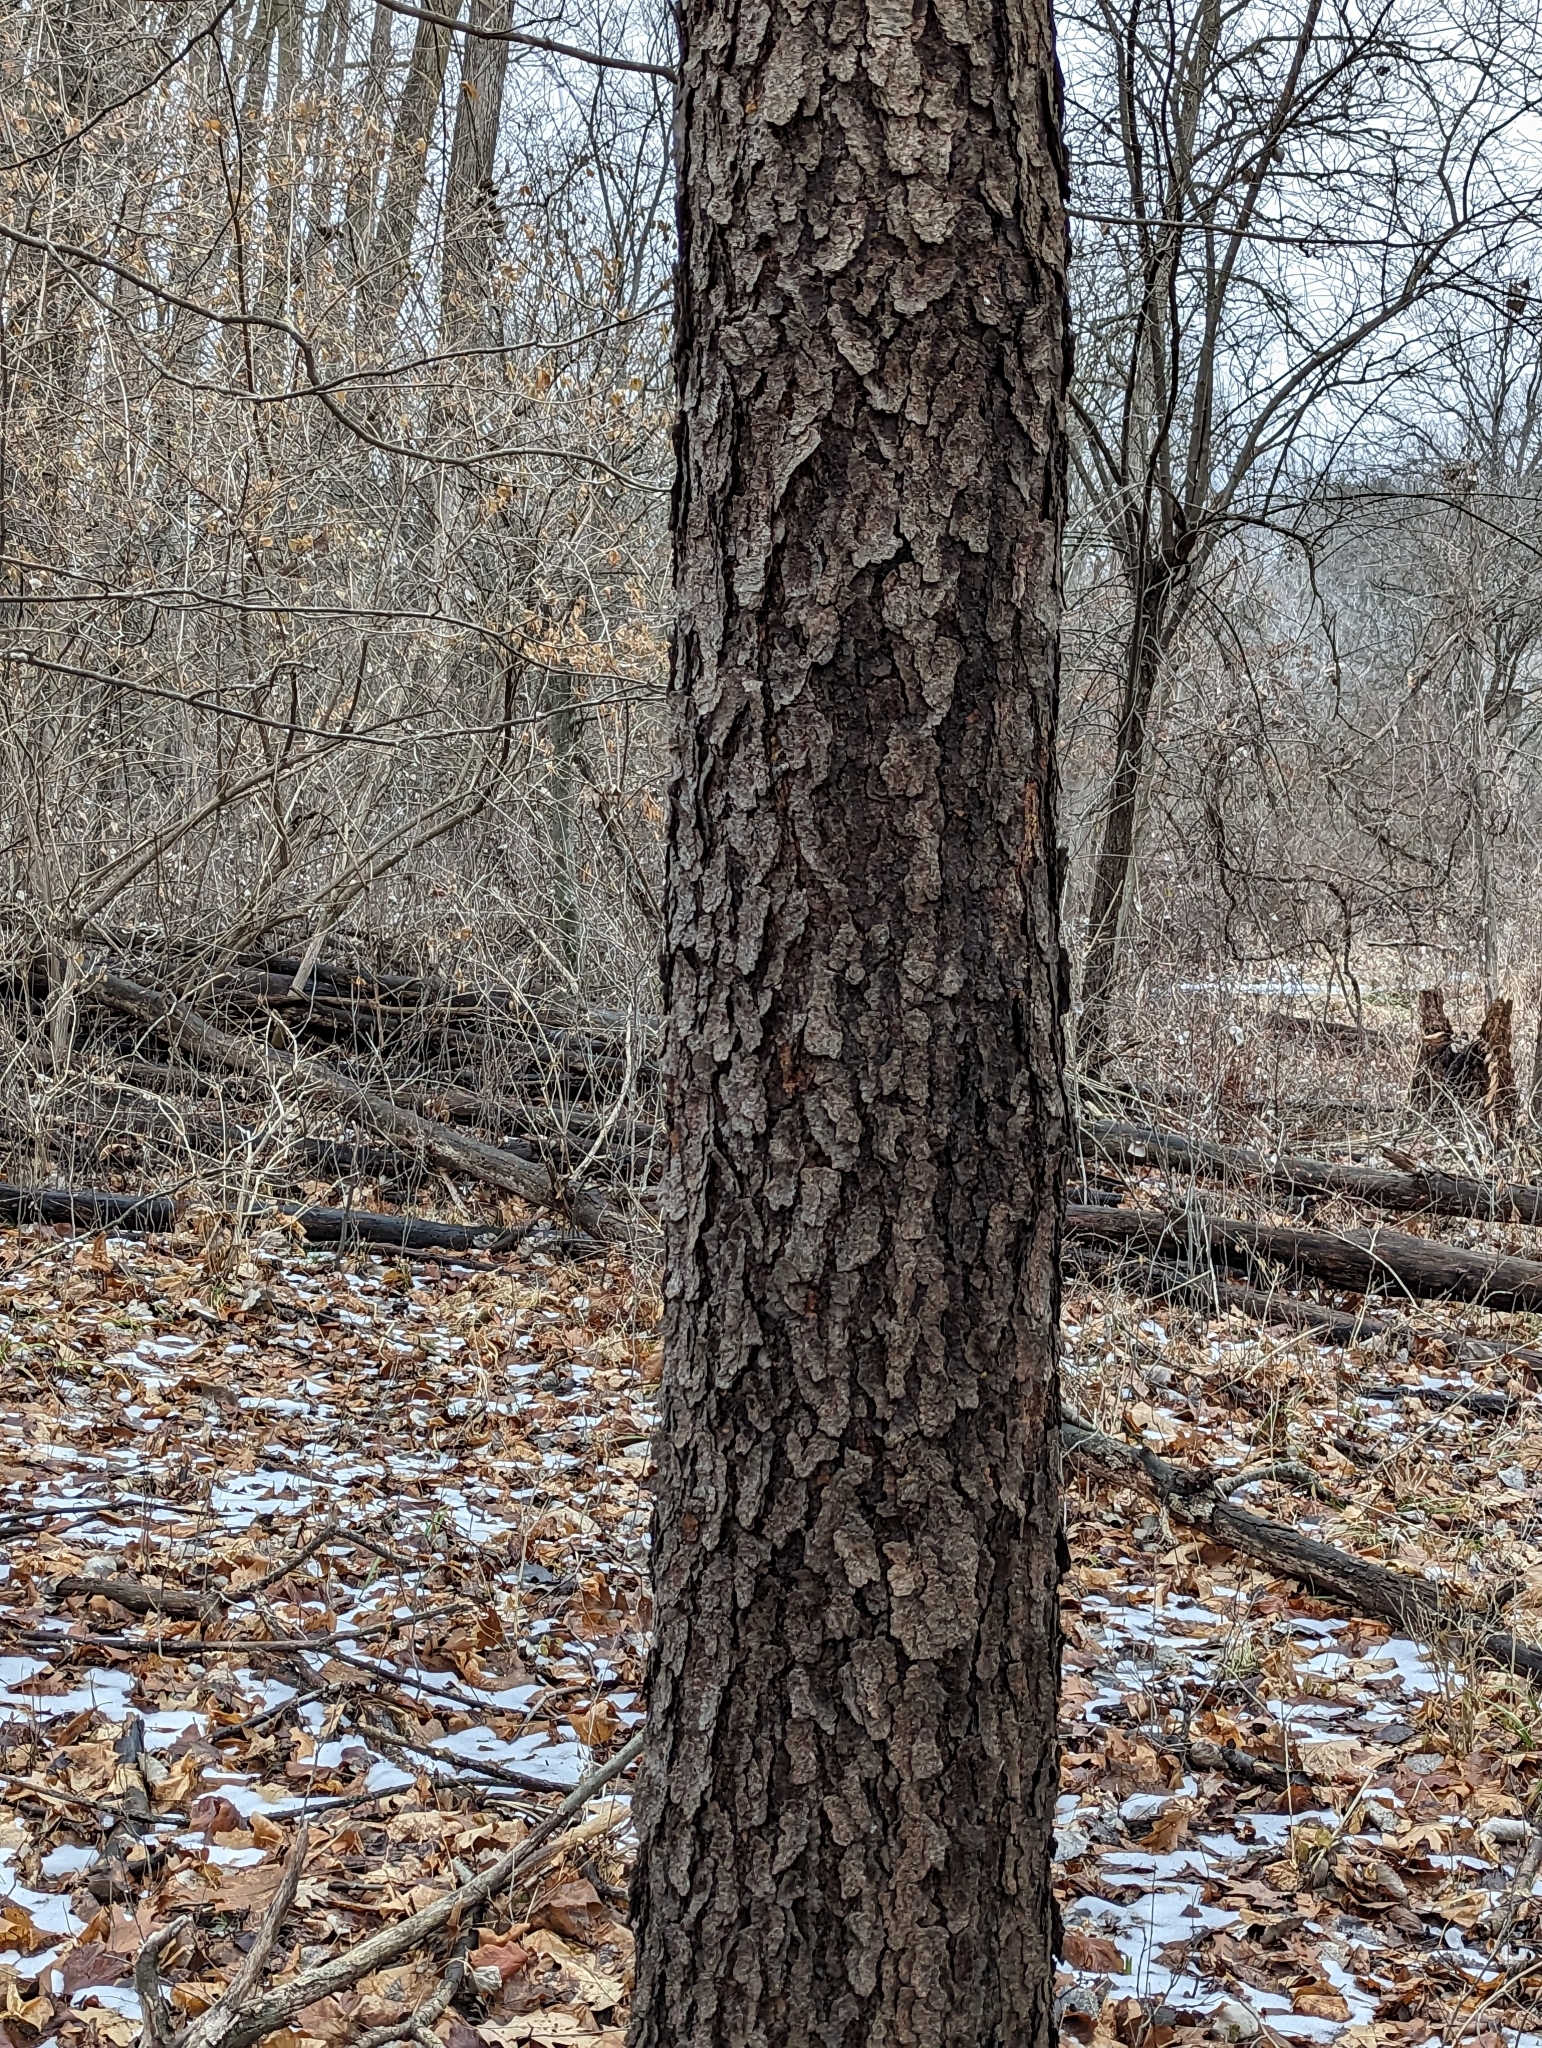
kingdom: Plantae
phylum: Tracheophyta
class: Magnoliopsida
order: Rosales
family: Rosaceae
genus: Prunus
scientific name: Prunus serotina
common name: Black cherry
